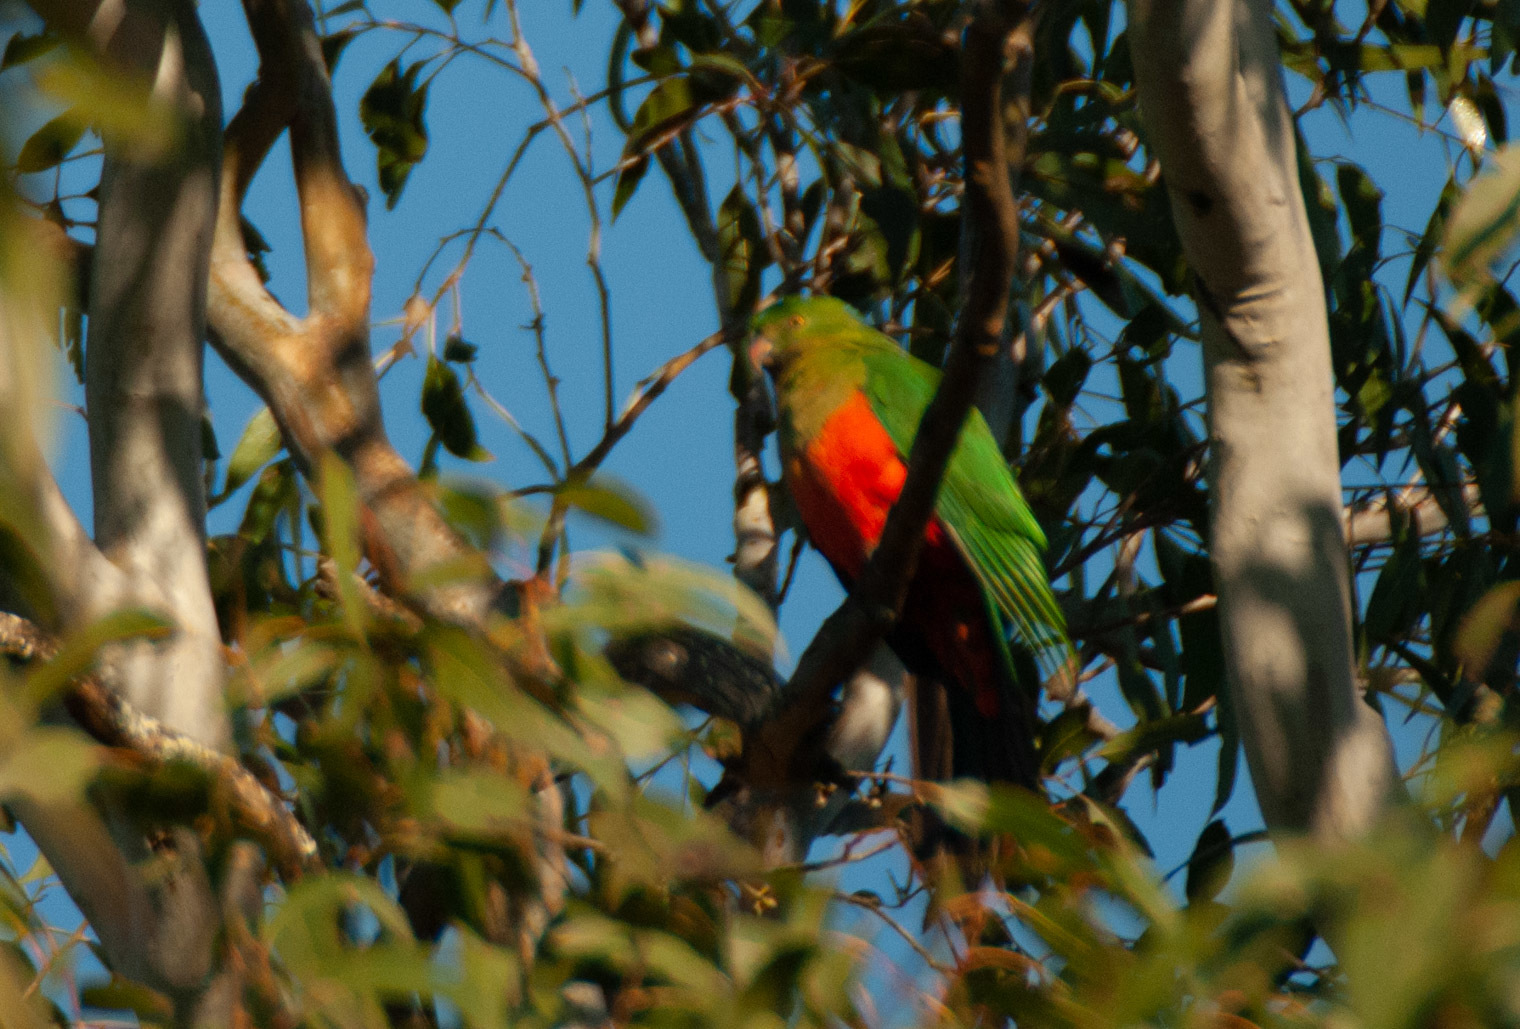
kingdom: Animalia
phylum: Chordata
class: Aves
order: Psittaciformes
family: Psittacidae
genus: Alisterus
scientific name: Alisterus scapularis
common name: Australian king parrot
